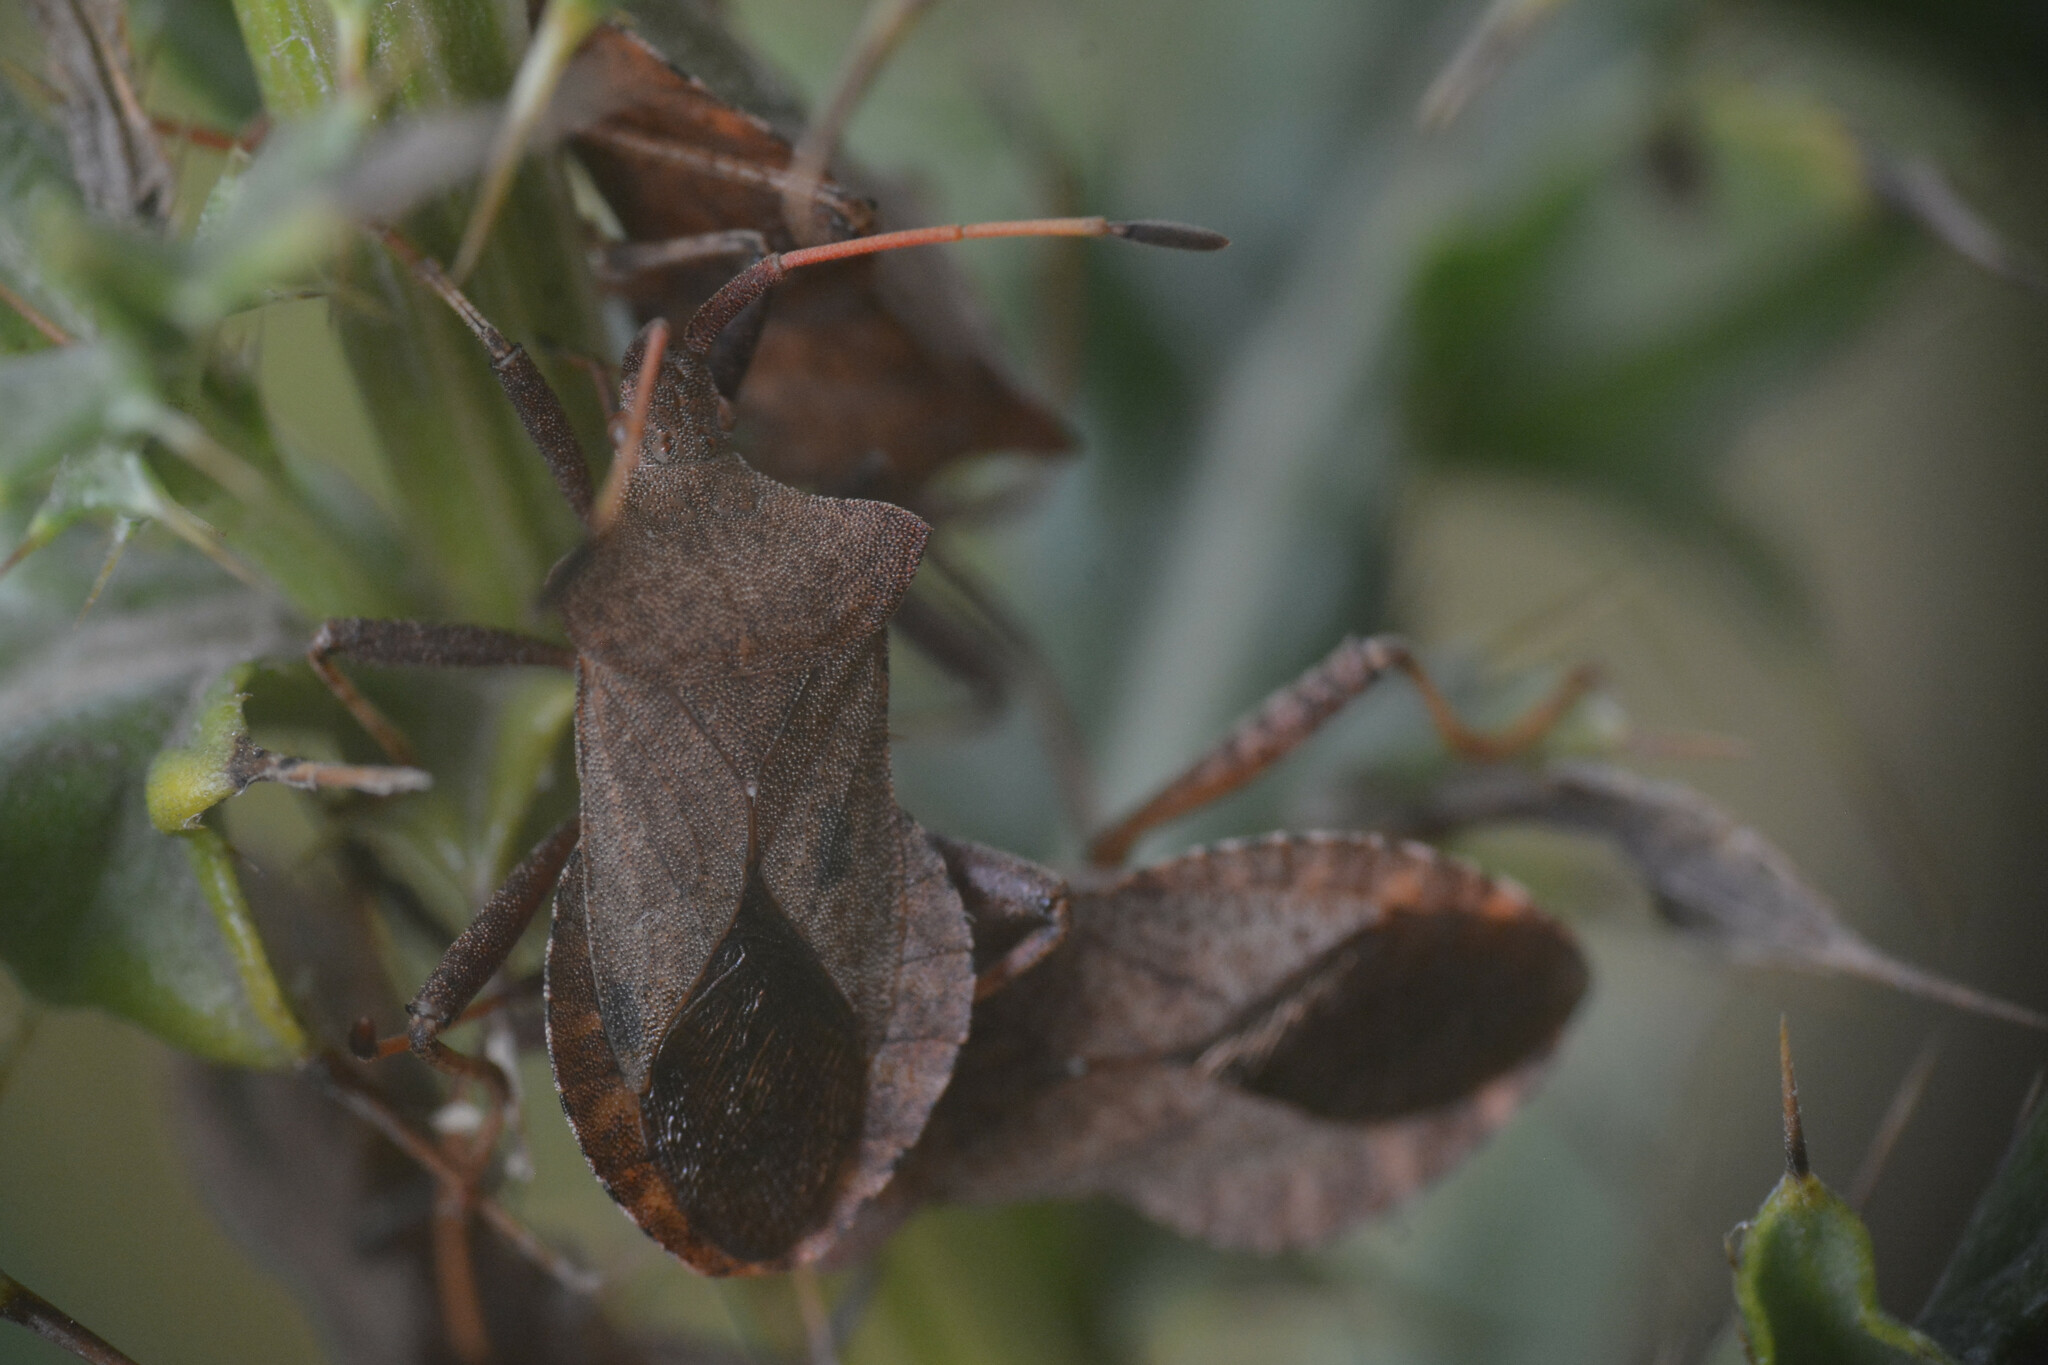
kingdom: Animalia
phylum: Arthropoda
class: Insecta
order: Hemiptera
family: Coreidae
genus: Coreus
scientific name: Coreus marginatus
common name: Dock bug
